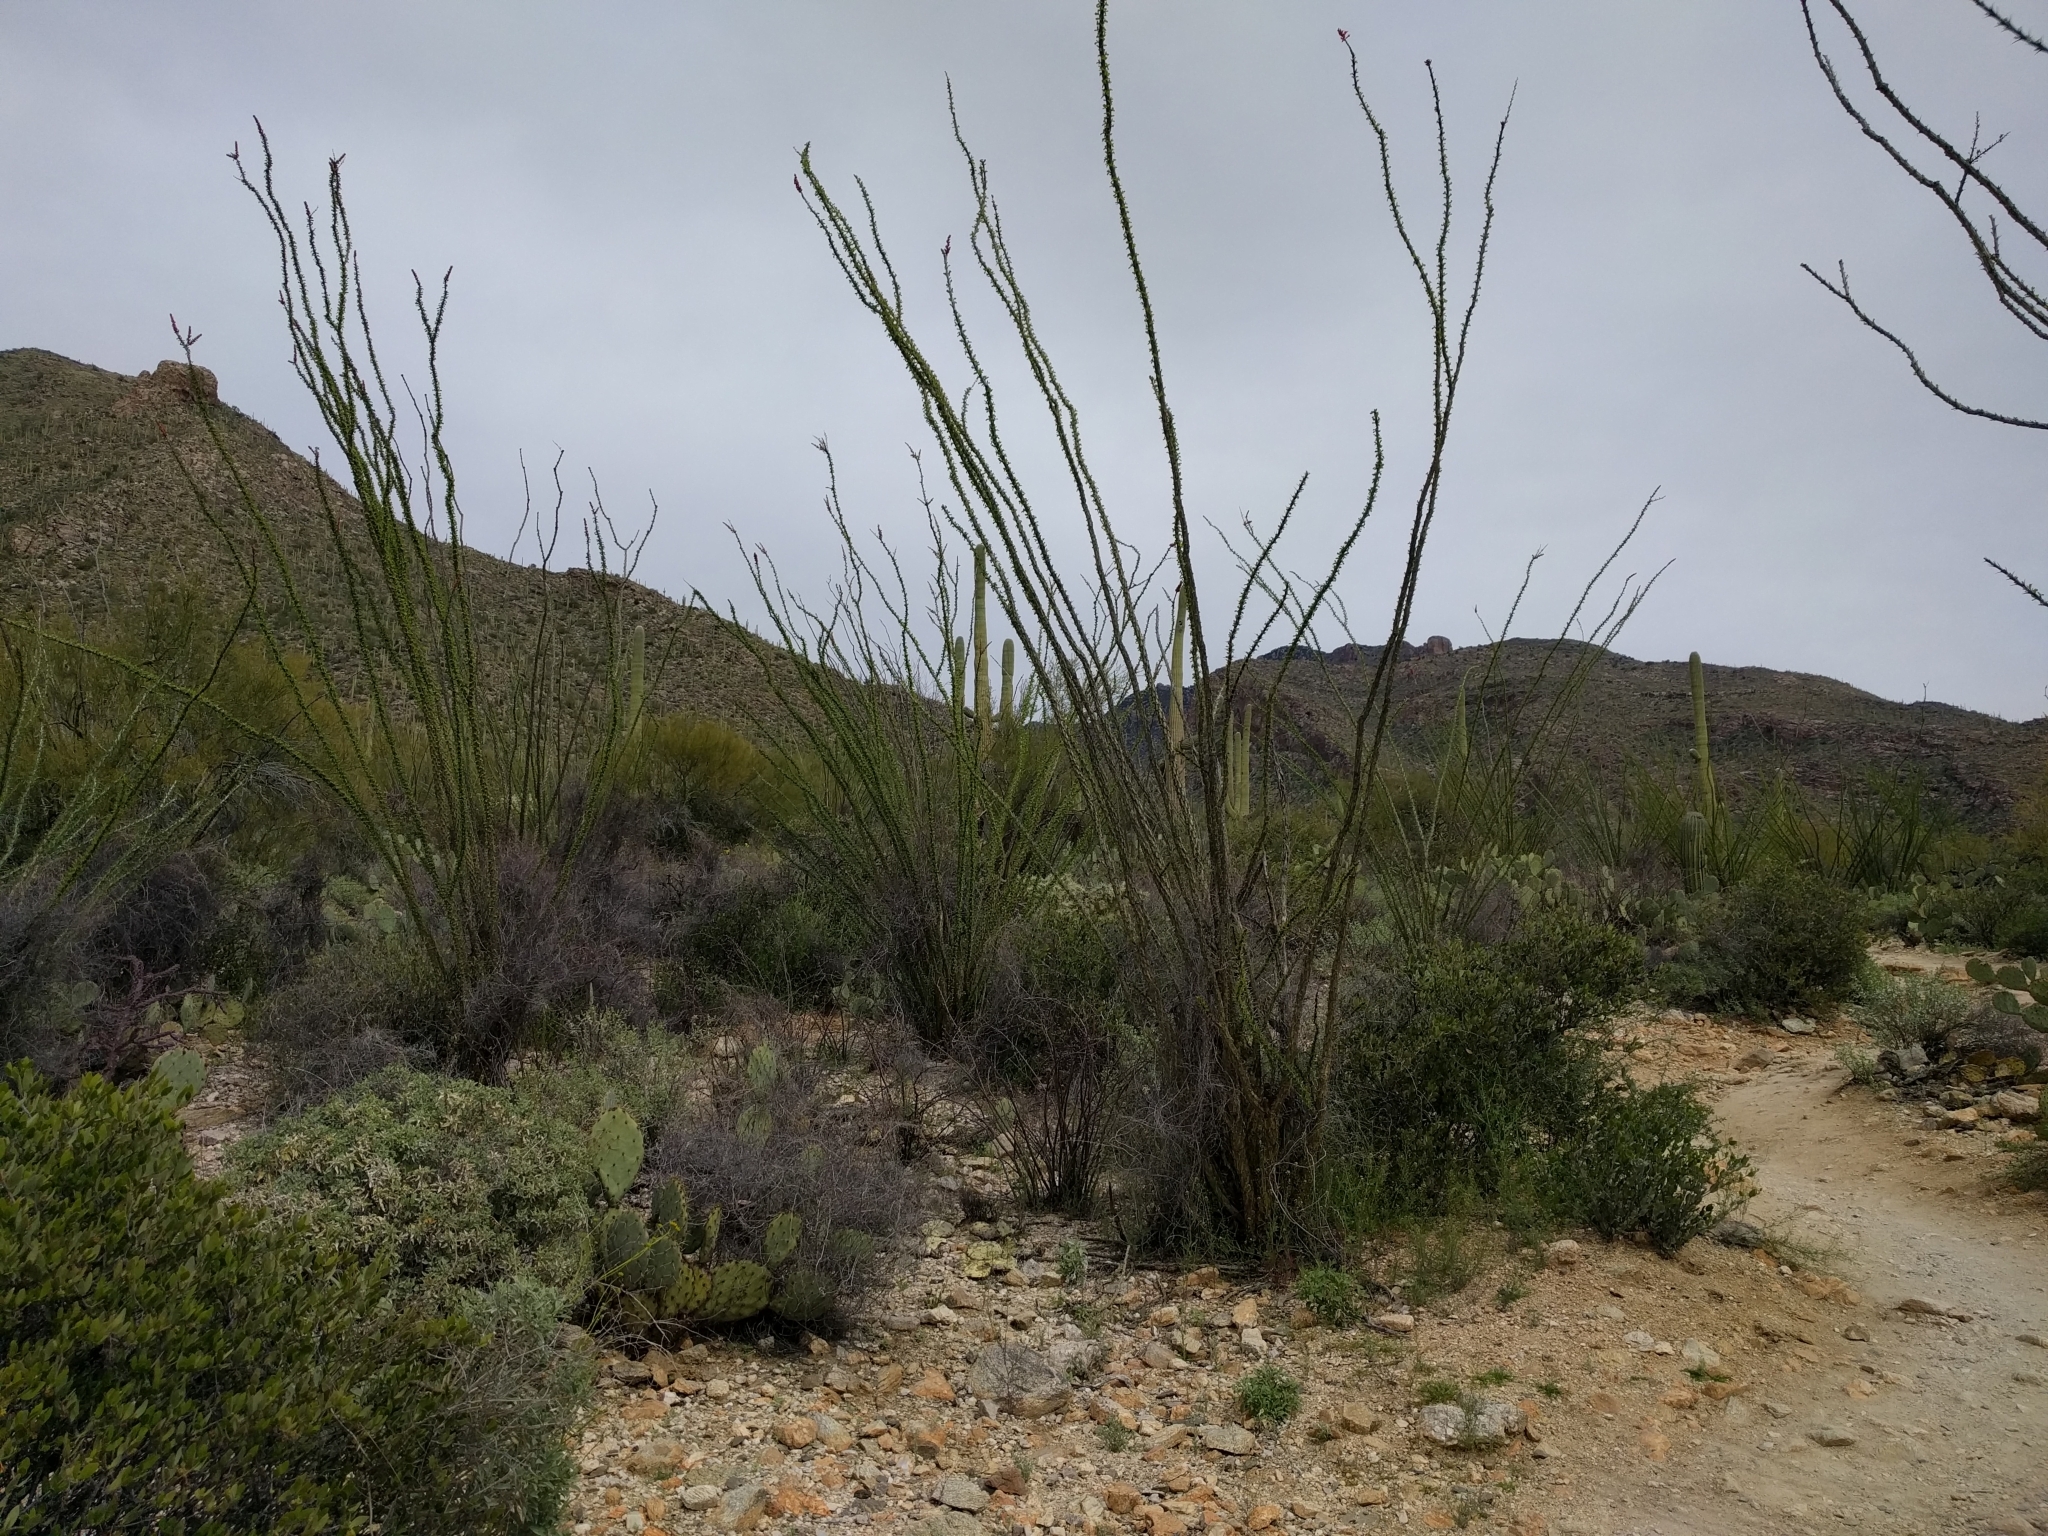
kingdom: Plantae
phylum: Tracheophyta
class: Magnoliopsida
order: Ericales
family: Fouquieriaceae
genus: Fouquieria
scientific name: Fouquieria splendens
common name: Vine-cactus
